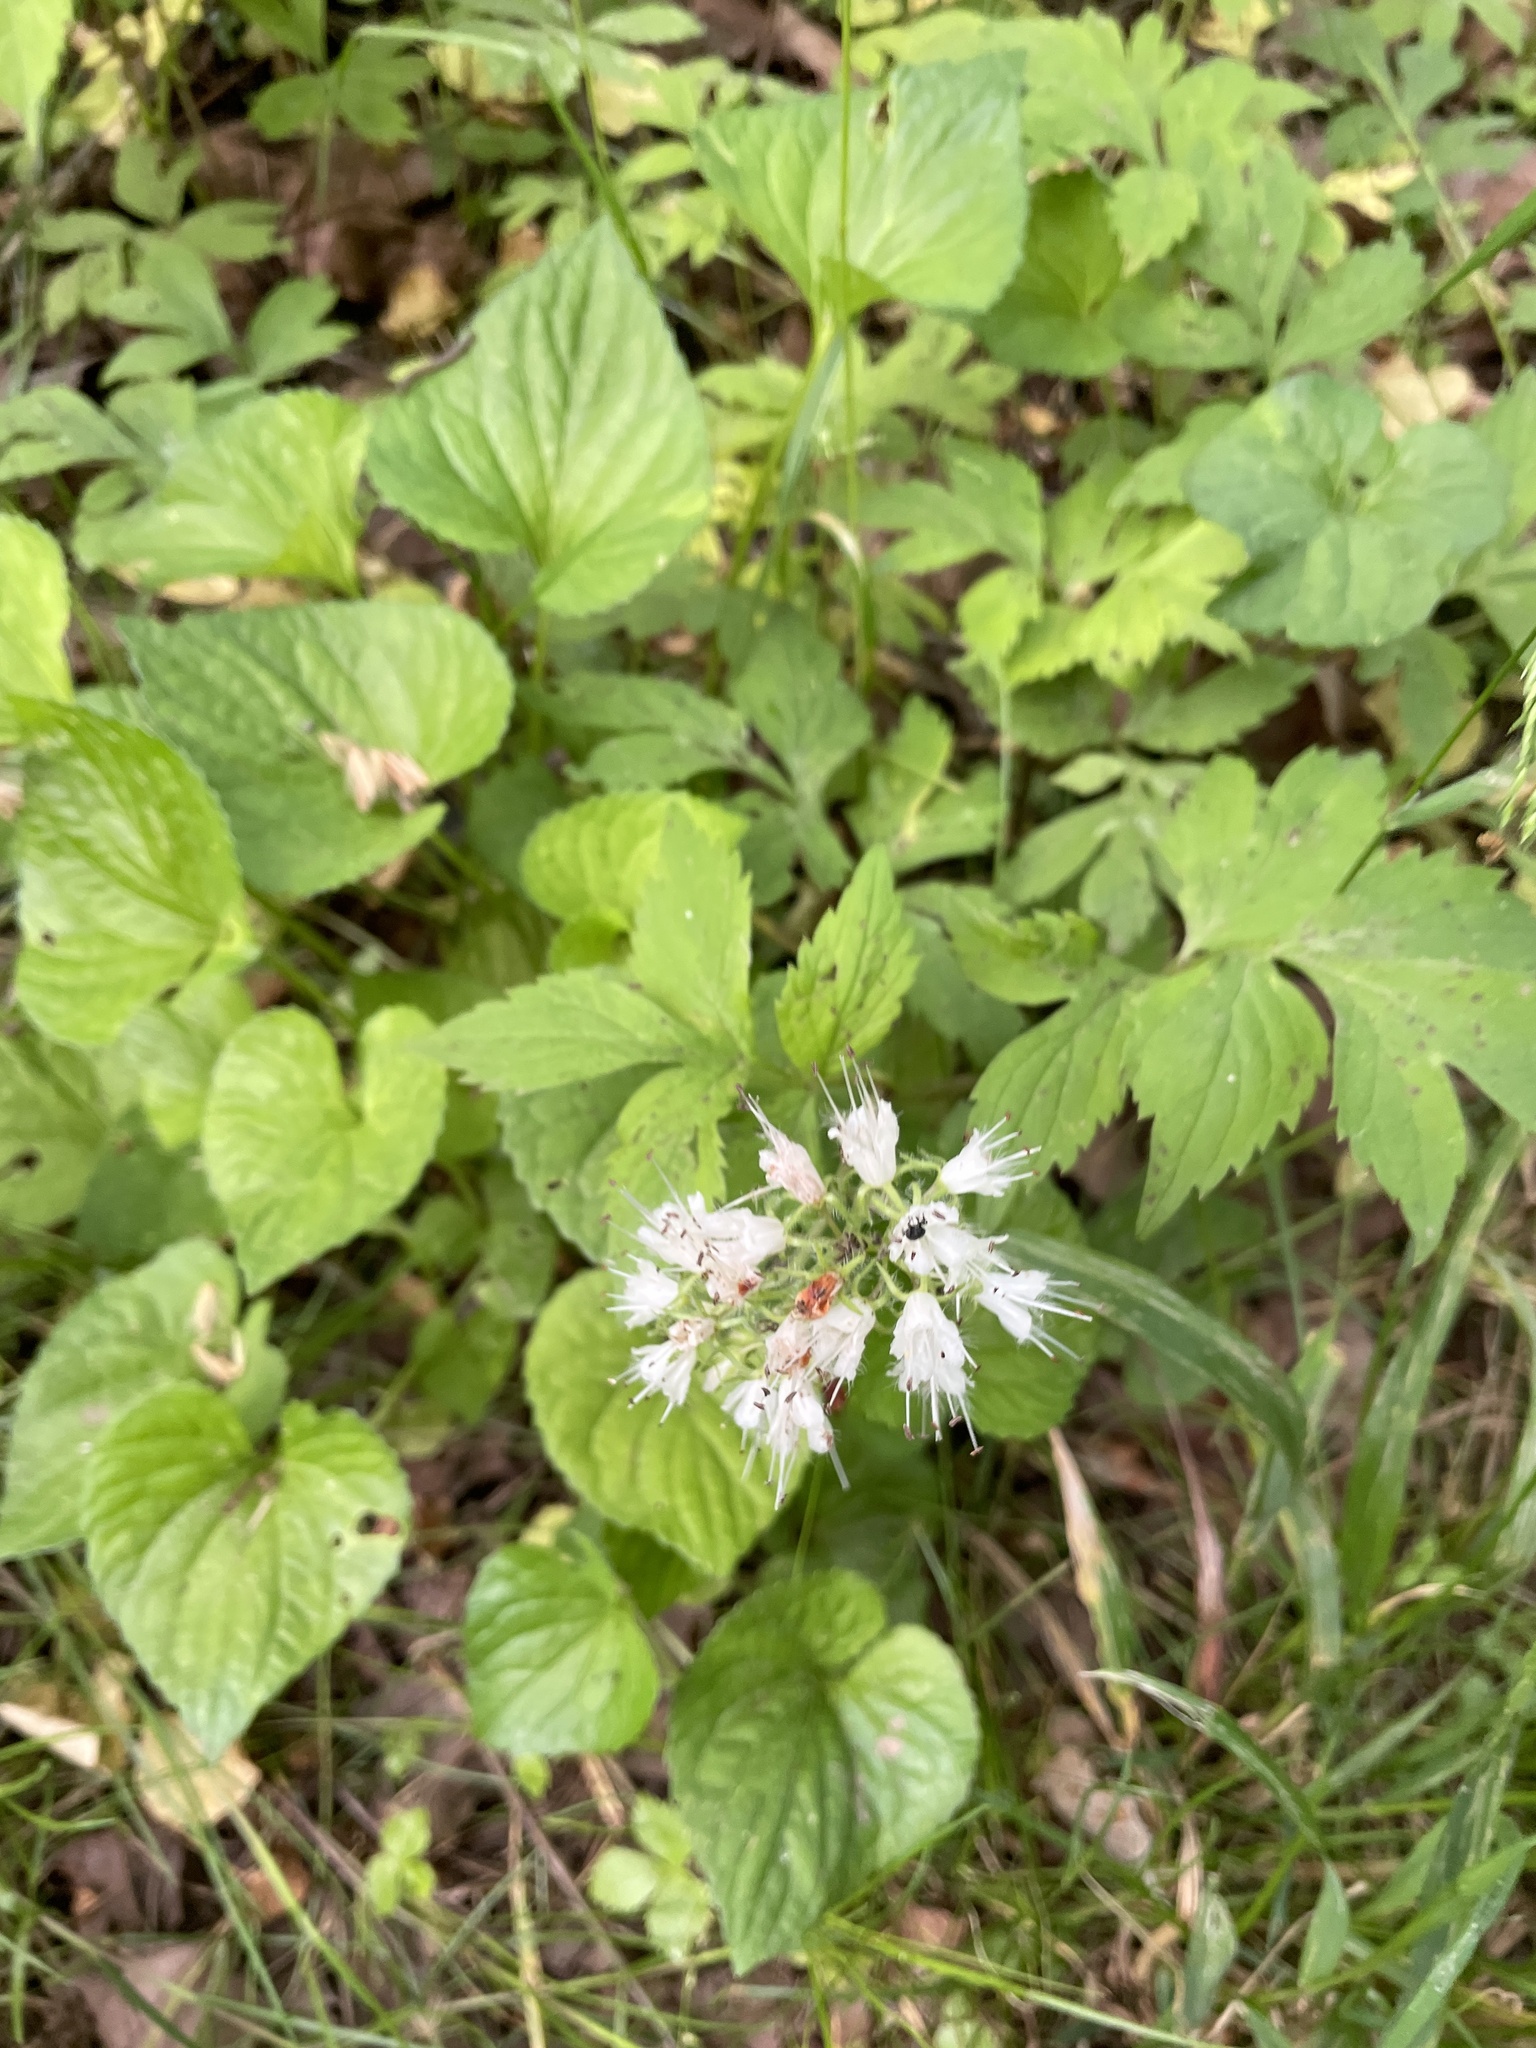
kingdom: Plantae
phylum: Tracheophyta
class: Magnoliopsida
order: Boraginales
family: Hydrophyllaceae
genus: Hydrophyllum
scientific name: Hydrophyllum virginianum
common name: Virginia waterleaf
